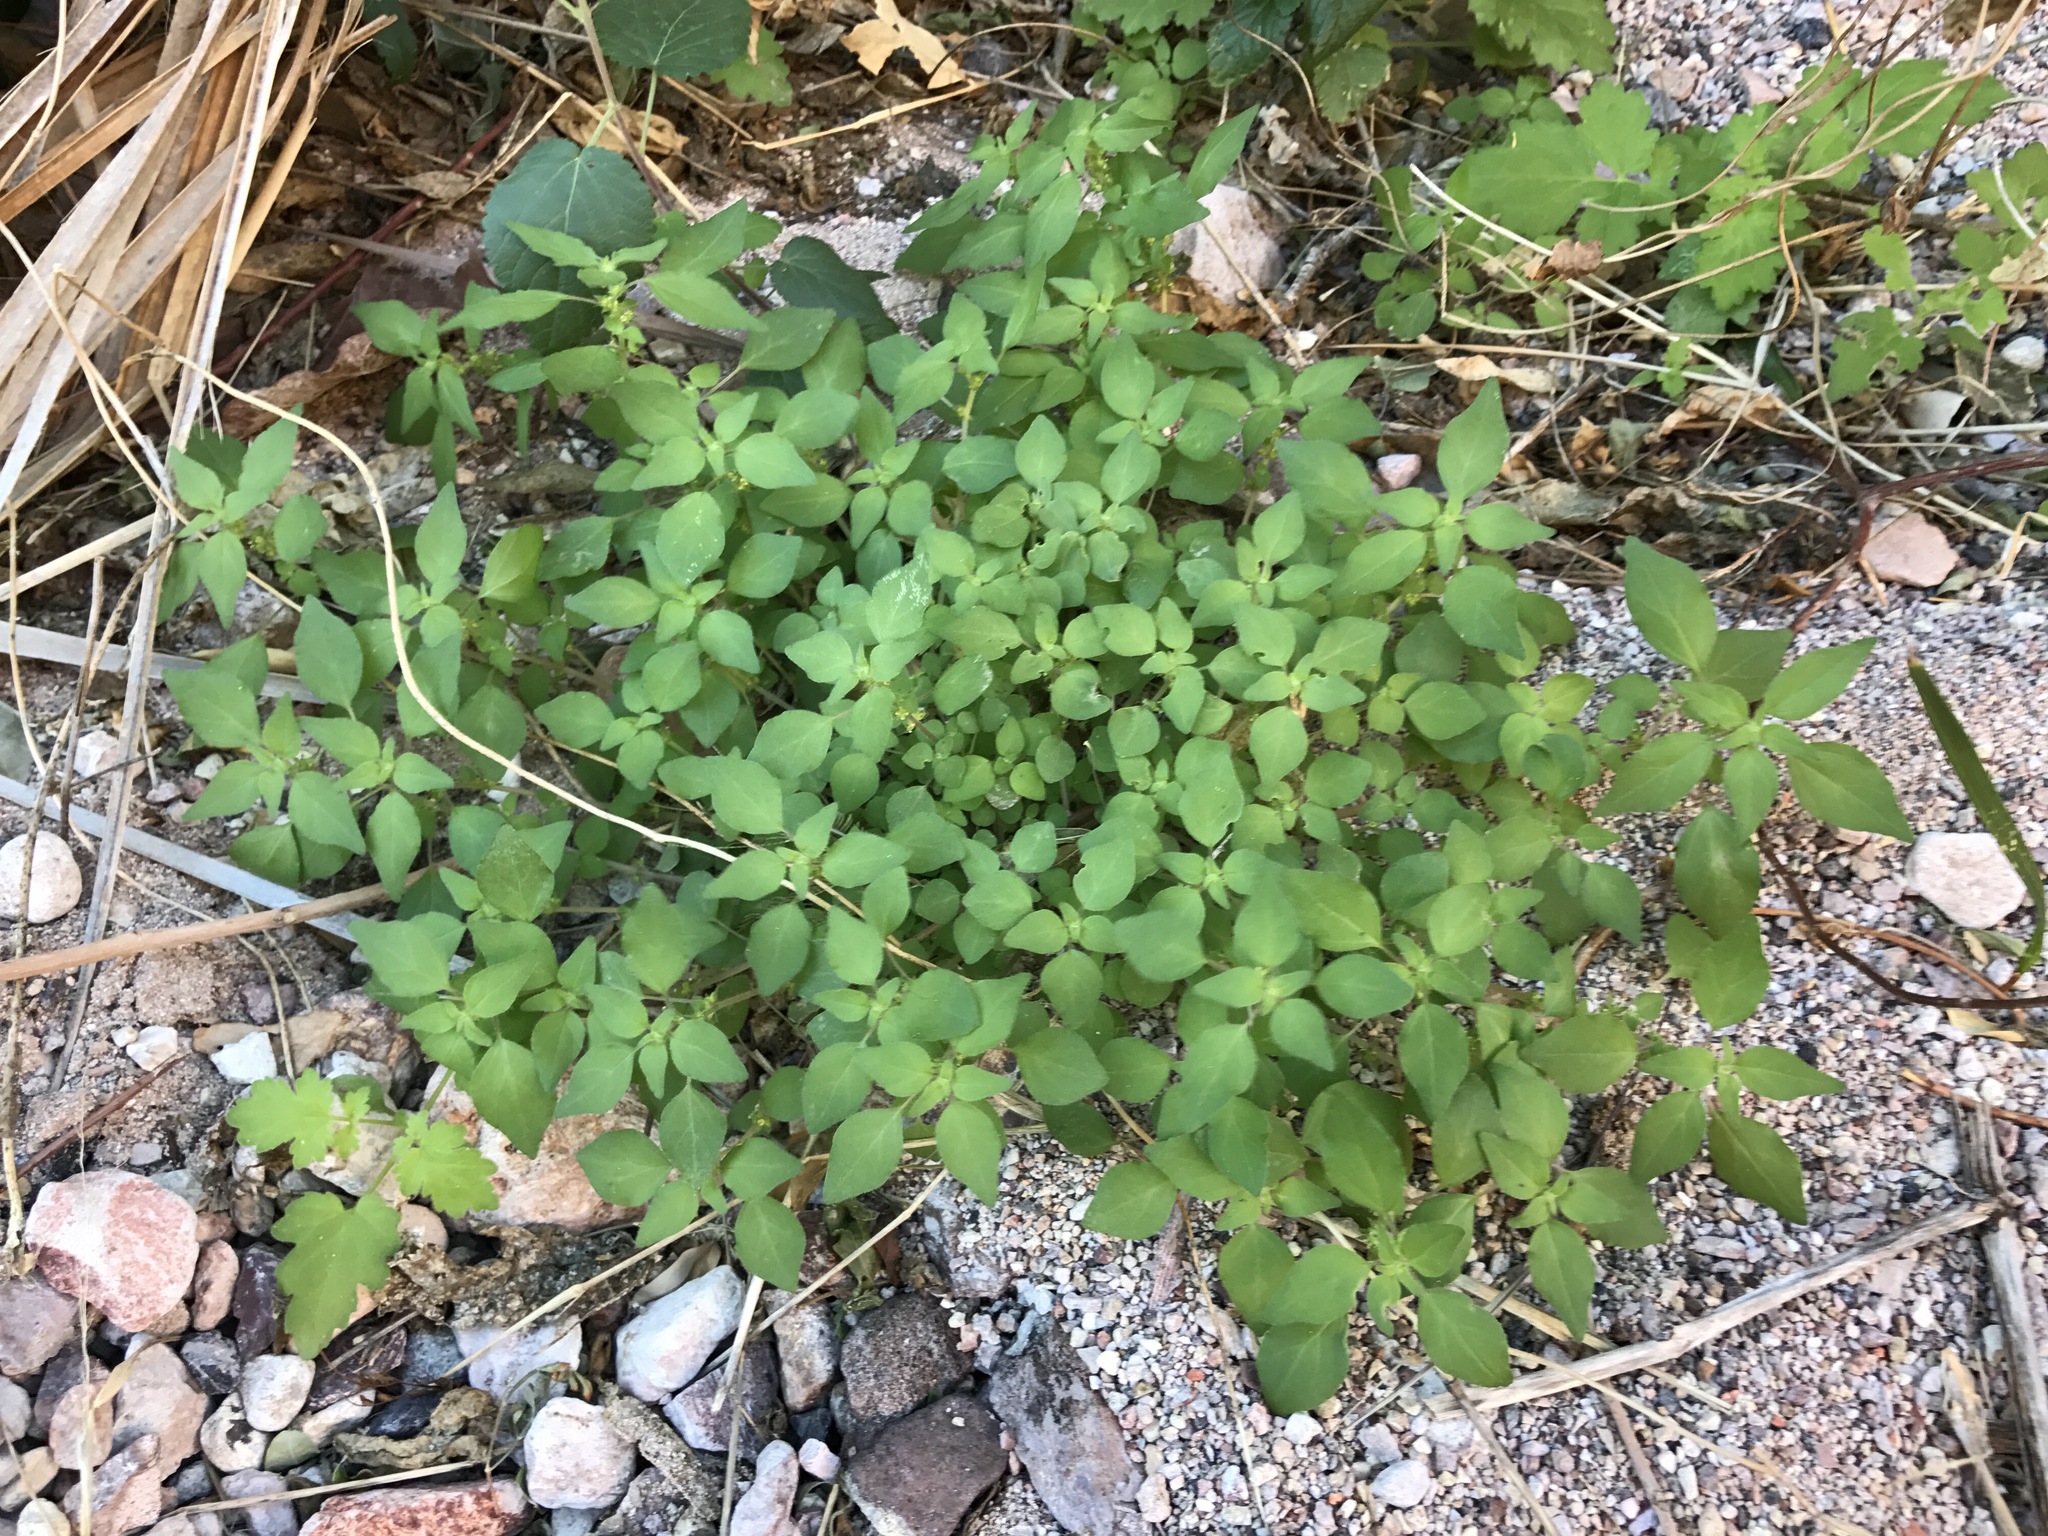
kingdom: Plantae
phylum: Tracheophyta
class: Magnoliopsida
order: Rosales
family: Urticaceae
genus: Parietaria
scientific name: Parietaria hespera
